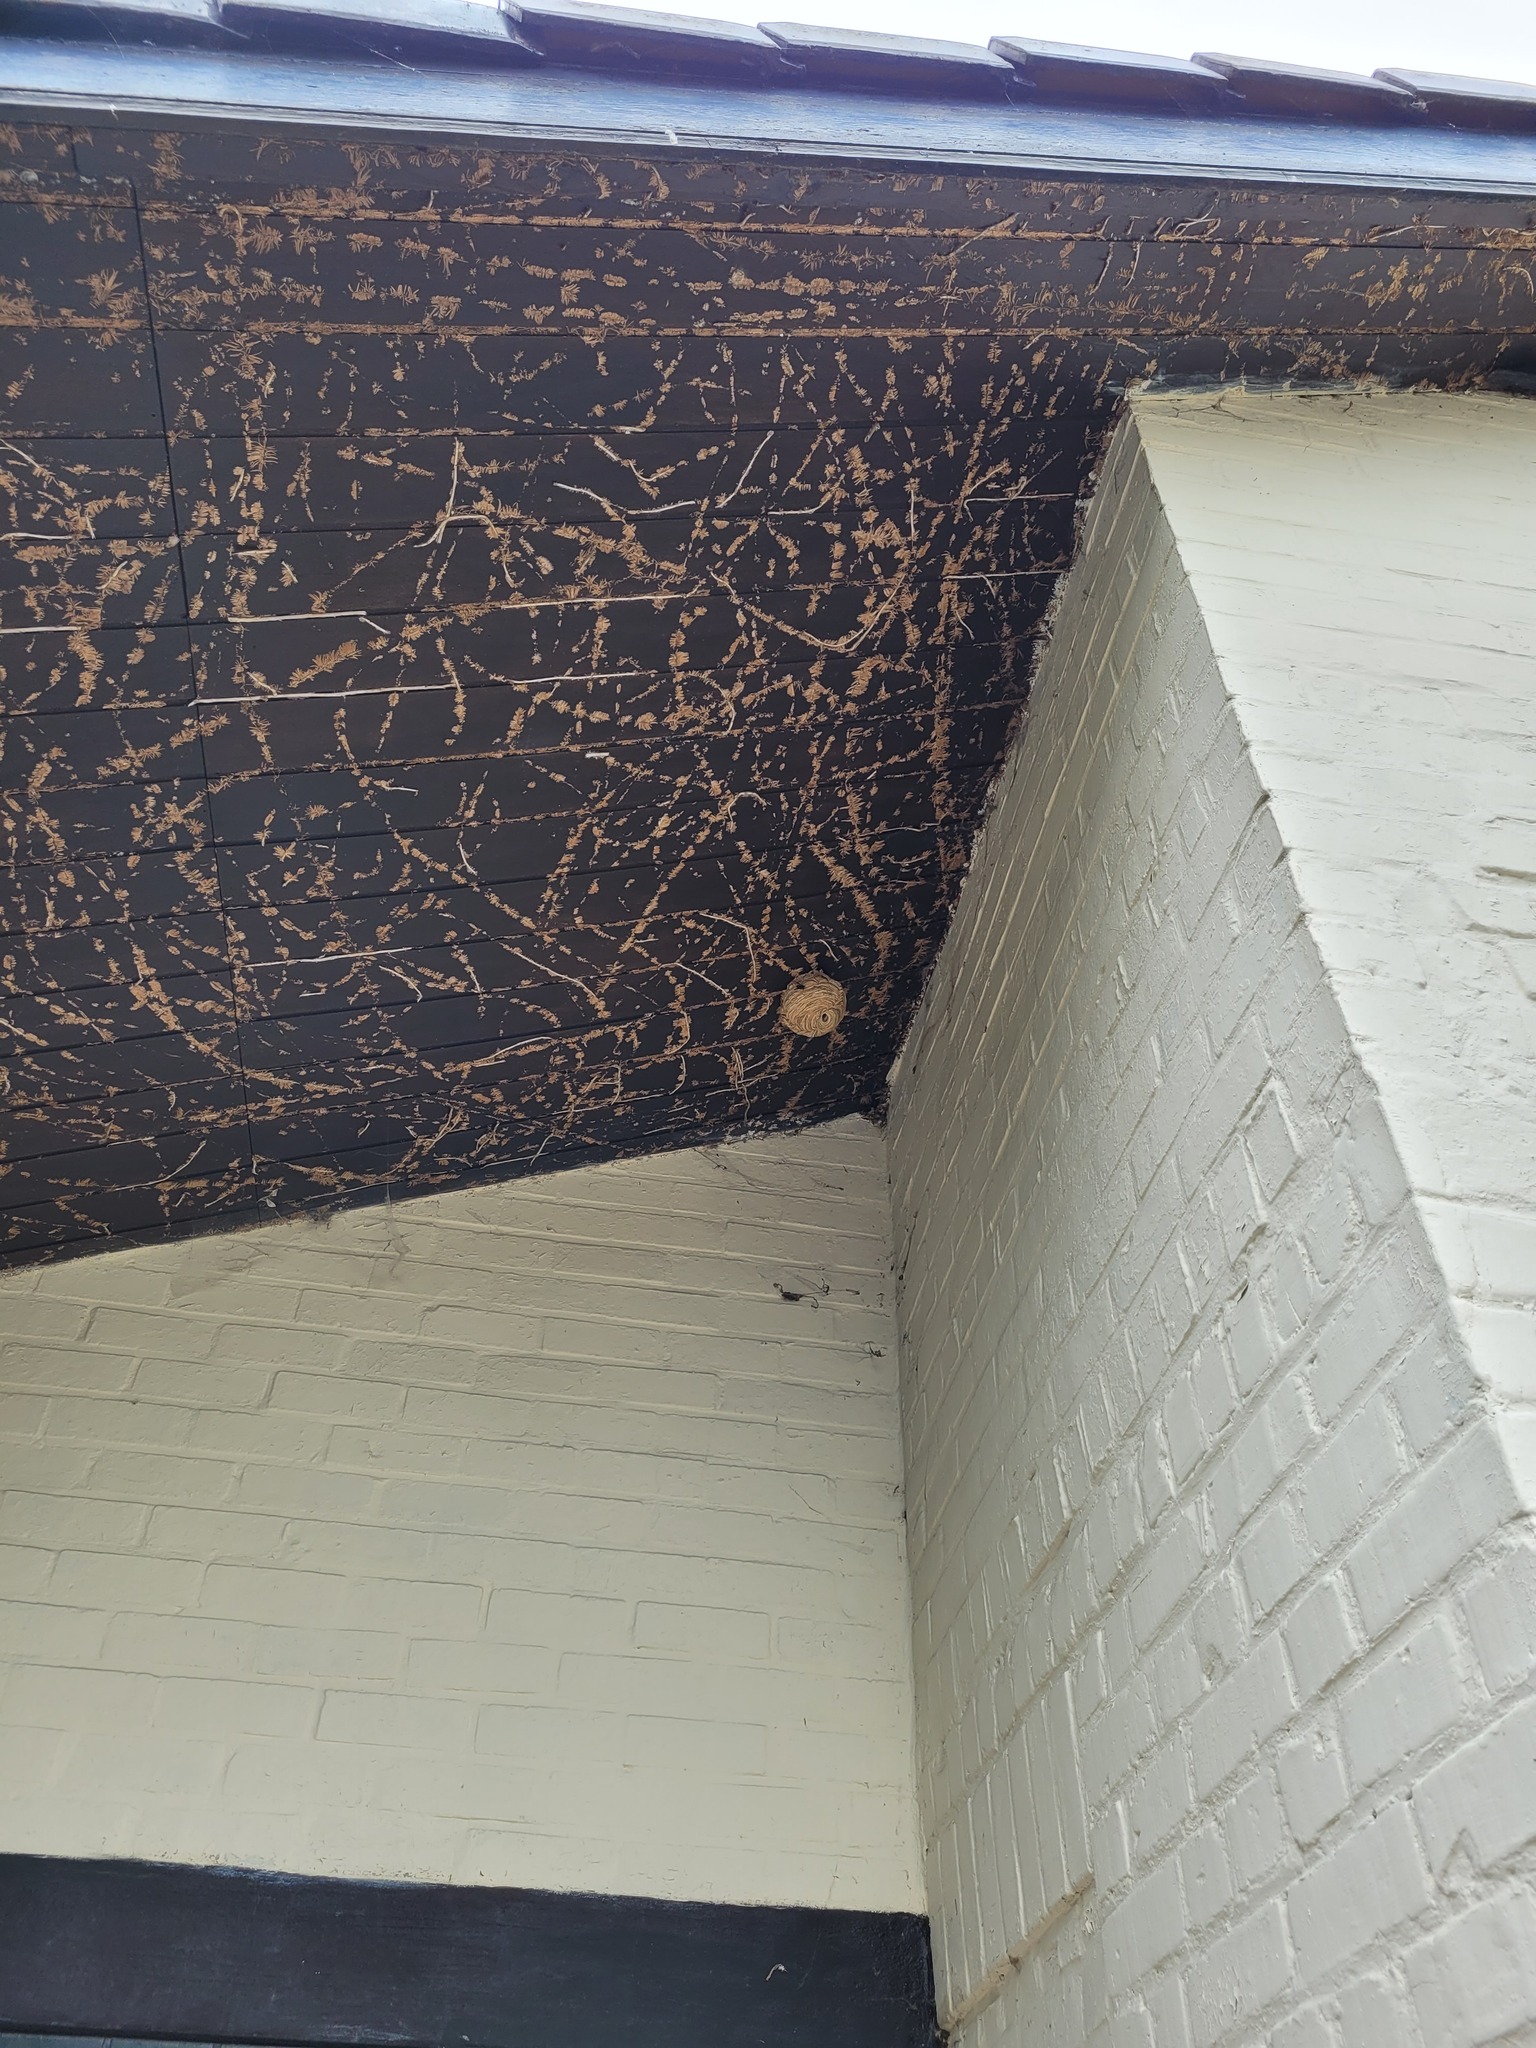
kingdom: Animalia
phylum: Arthropoda
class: Insecta
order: Hymenoptera
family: Vespidae
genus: Vespa
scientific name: Vespa velutina
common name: Asian hornet
